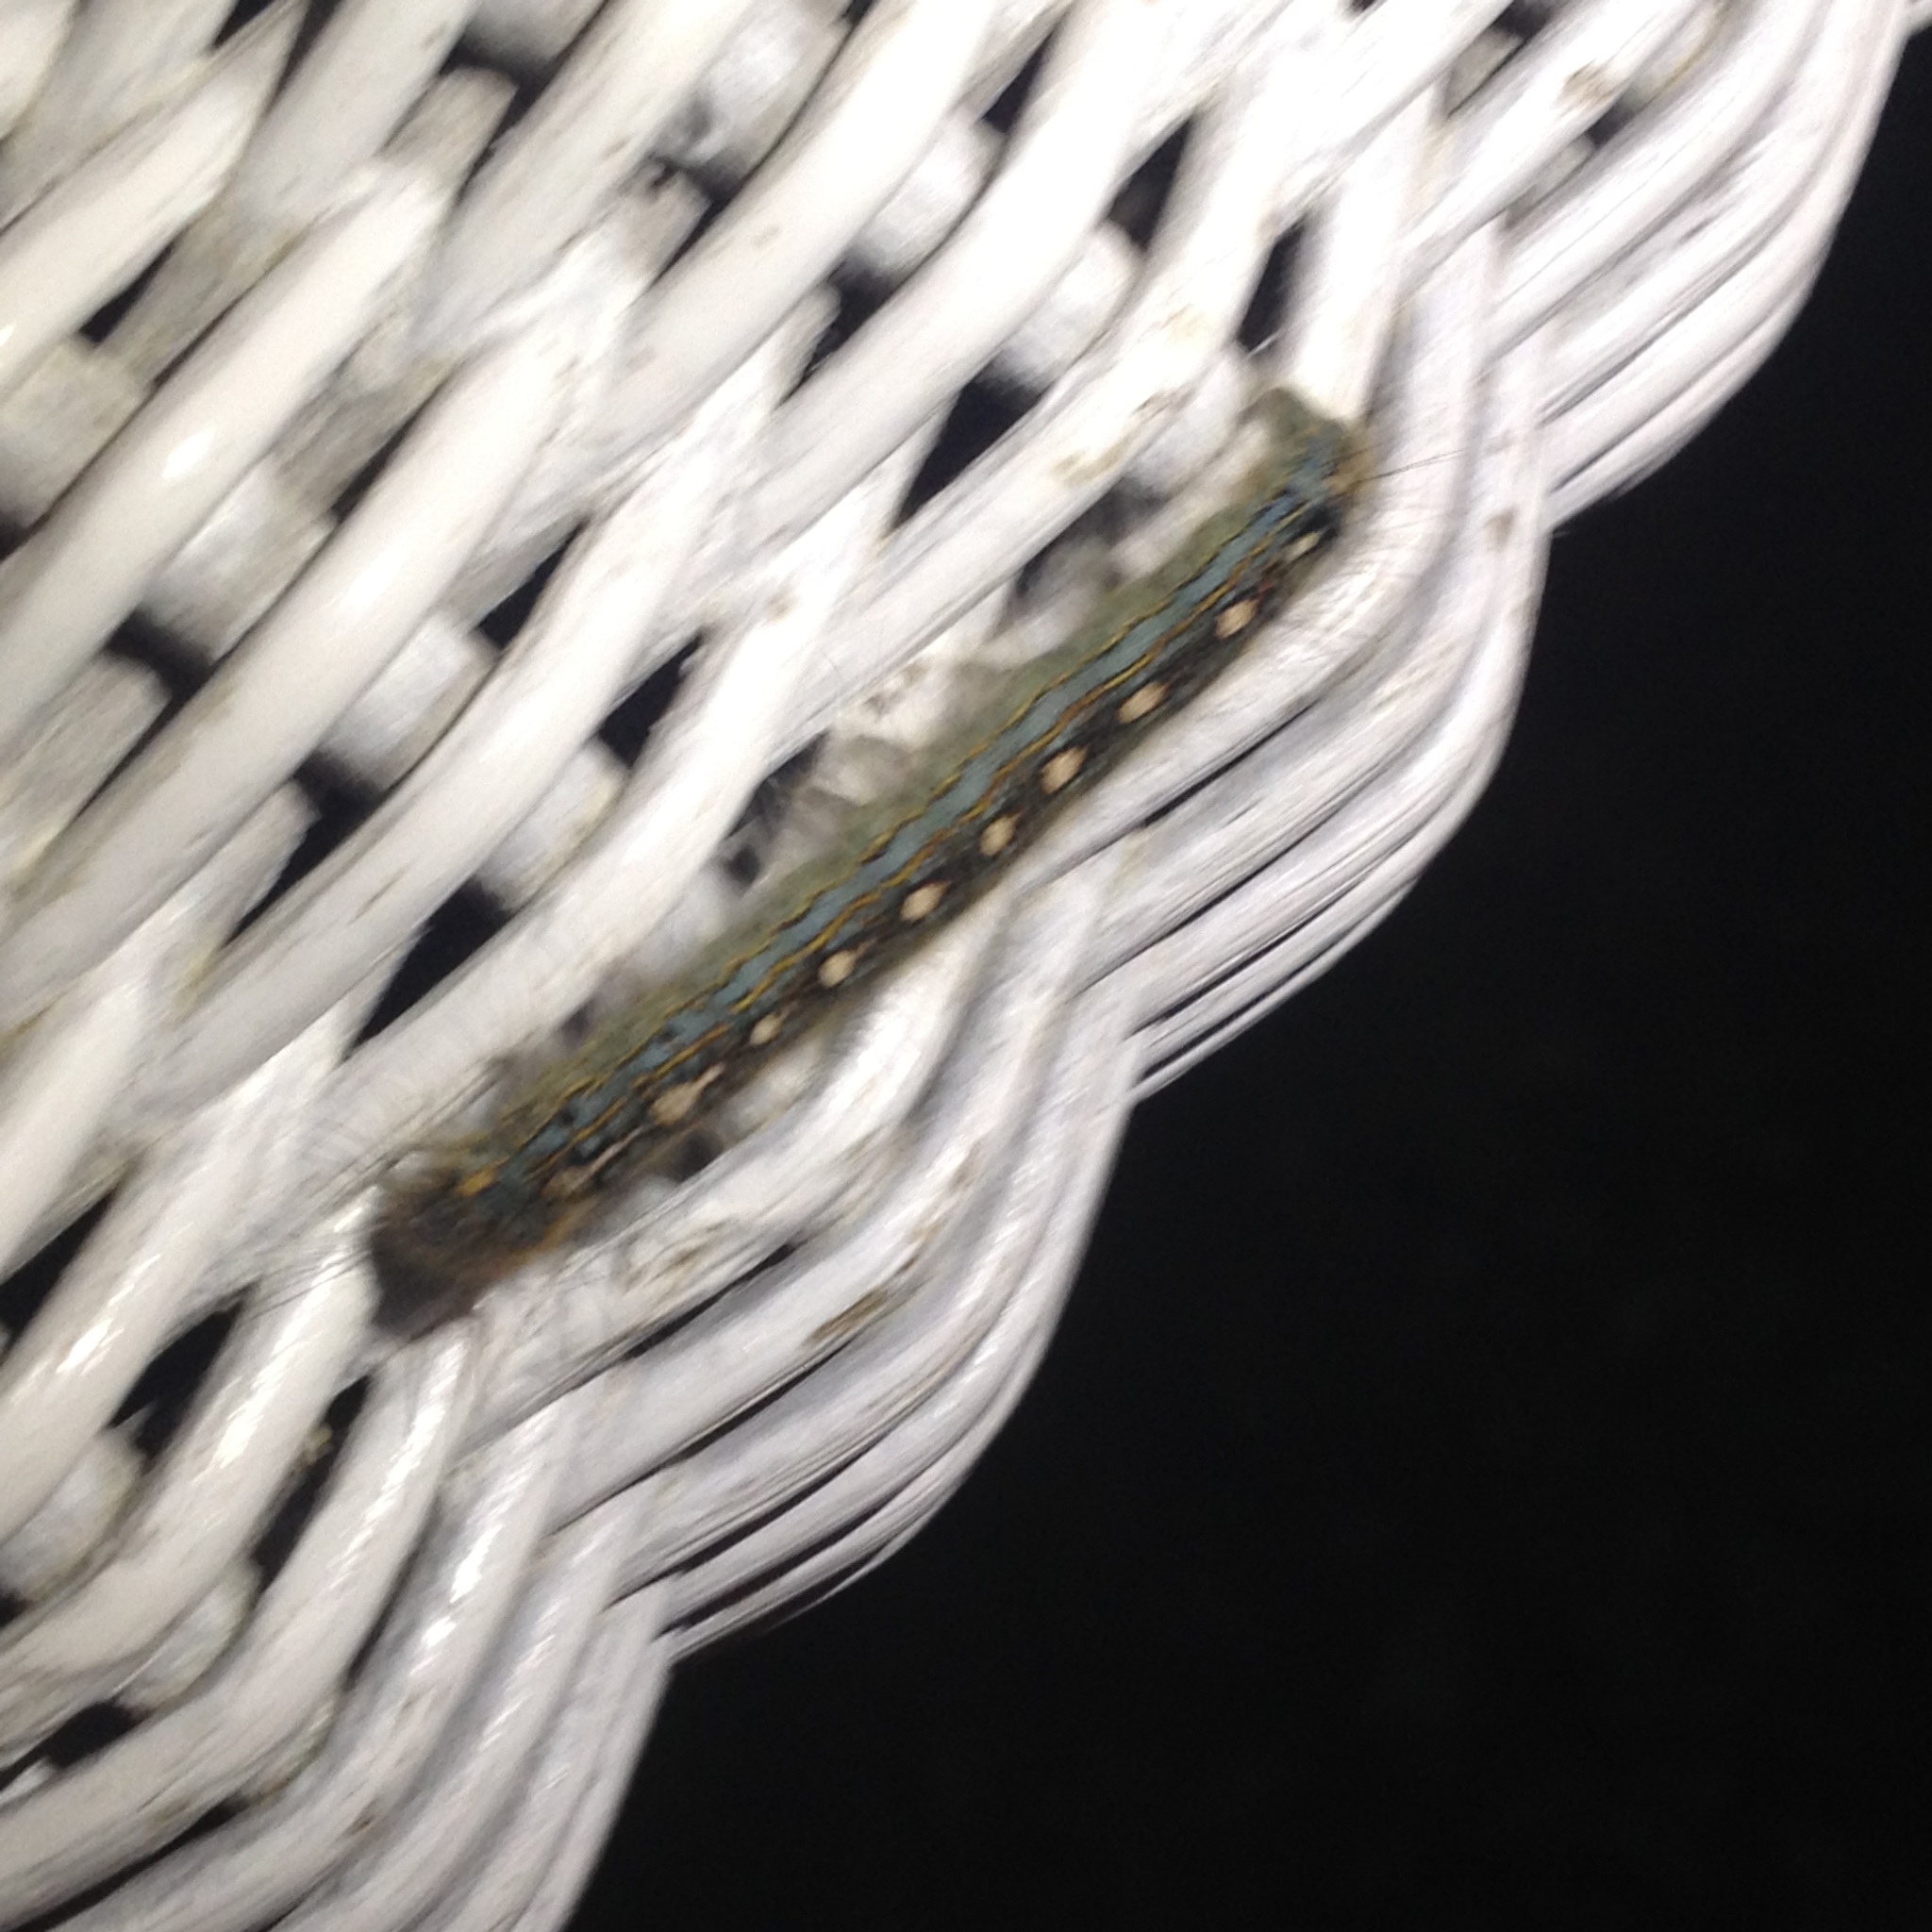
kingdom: Animalia
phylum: Arthropoda
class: Insecta
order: Lepidoptera
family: Lasiocampidae
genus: Malacosoma
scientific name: Malacosoma americana
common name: Eastern tent caterpillar moth
